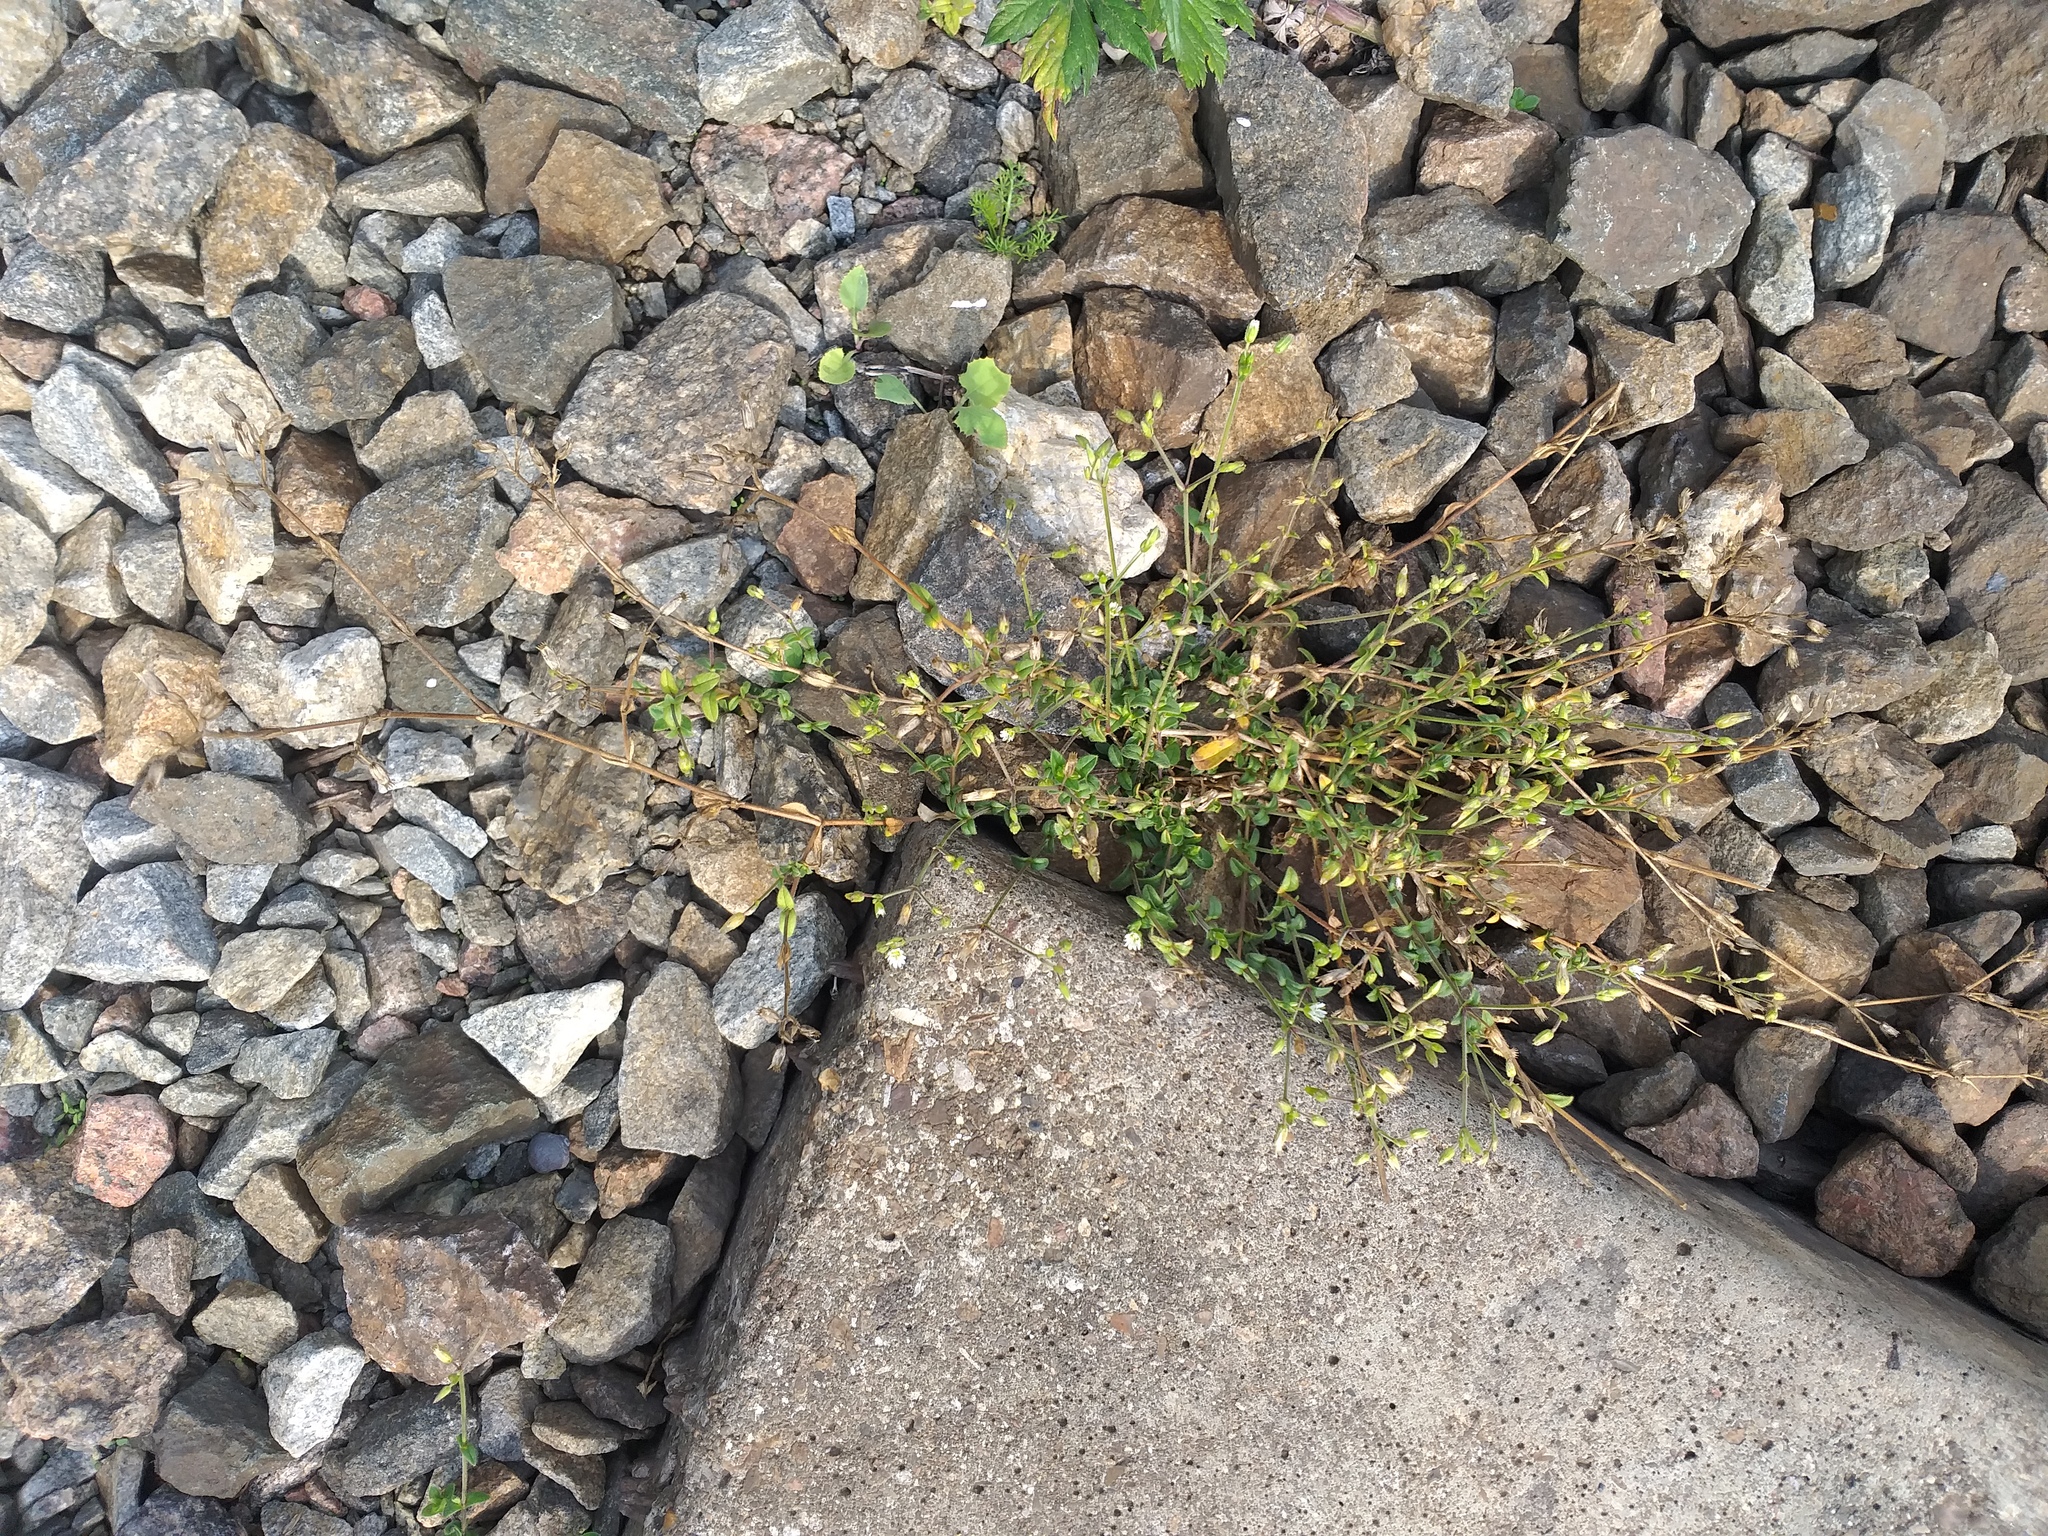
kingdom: Plantae
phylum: Tracheophyta
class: Magnoliopsida
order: Caryophyllales
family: Caryophyllaceae
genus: Cerastium
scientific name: Cerastium holosteoides
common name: Big chickweed
